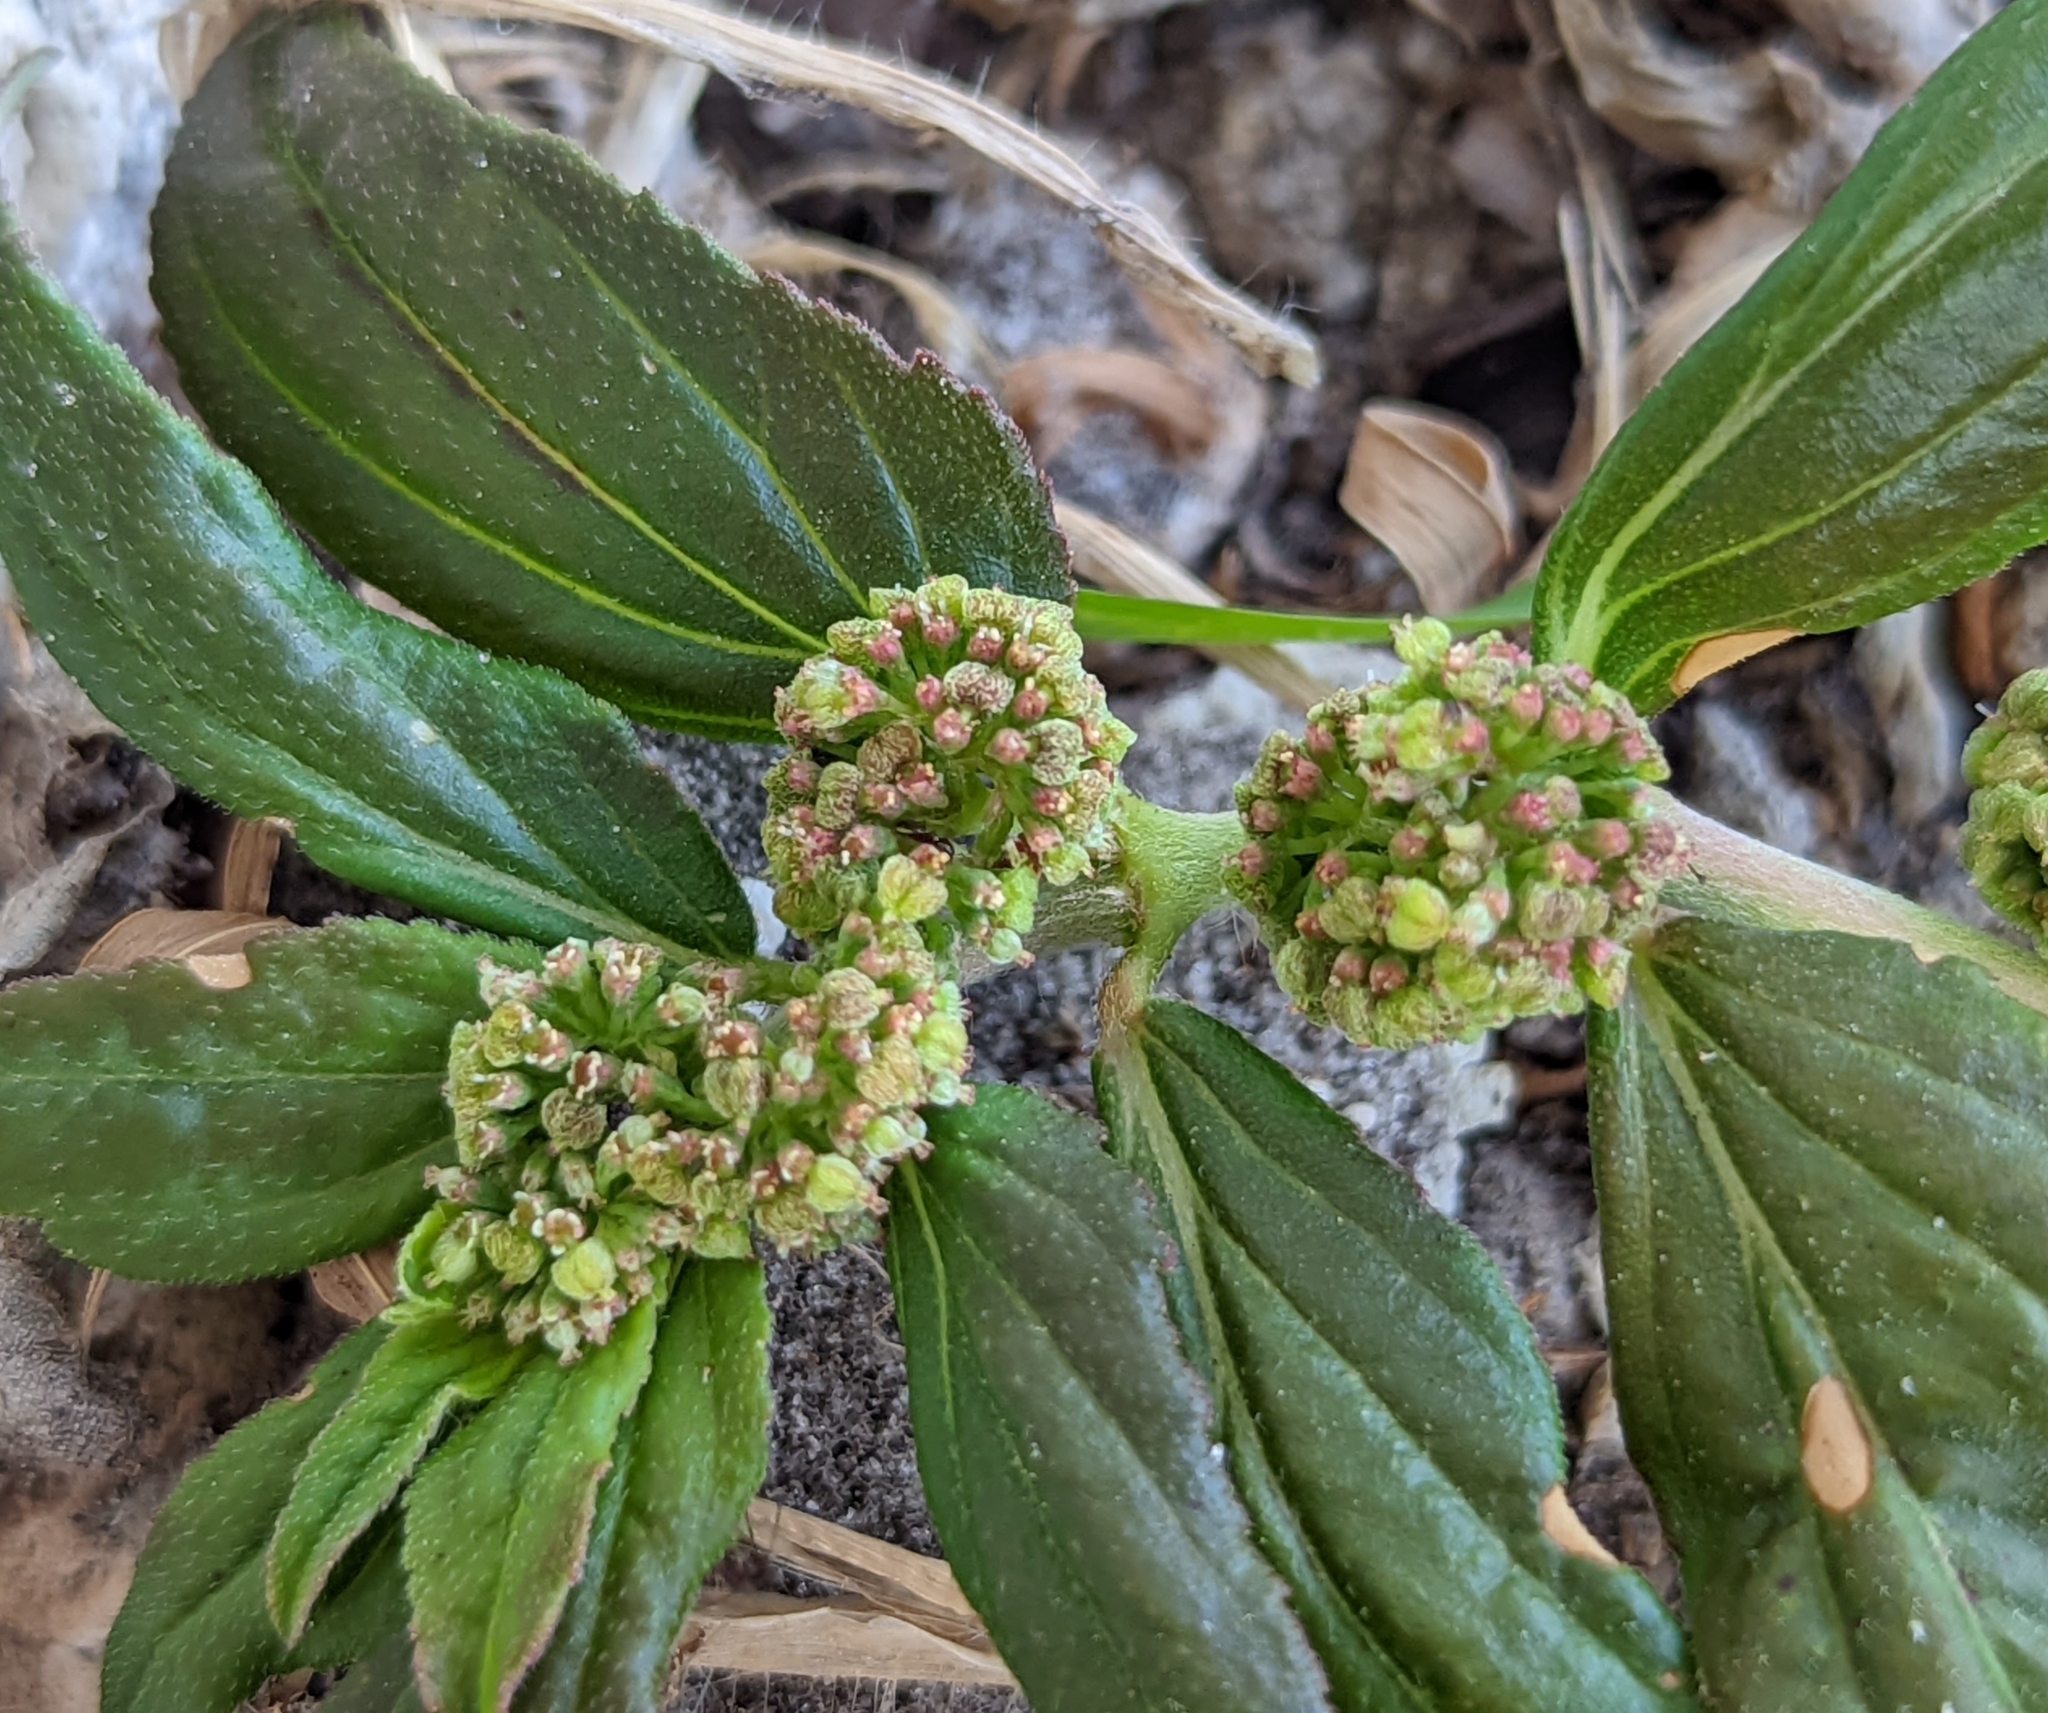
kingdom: Plantae
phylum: Tracheophyta
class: Magnoliopsida
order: Malpighiales
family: Euphorbiaceae
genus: Euphorbia
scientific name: Euphorbia hirta
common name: Pillpod sandmat
